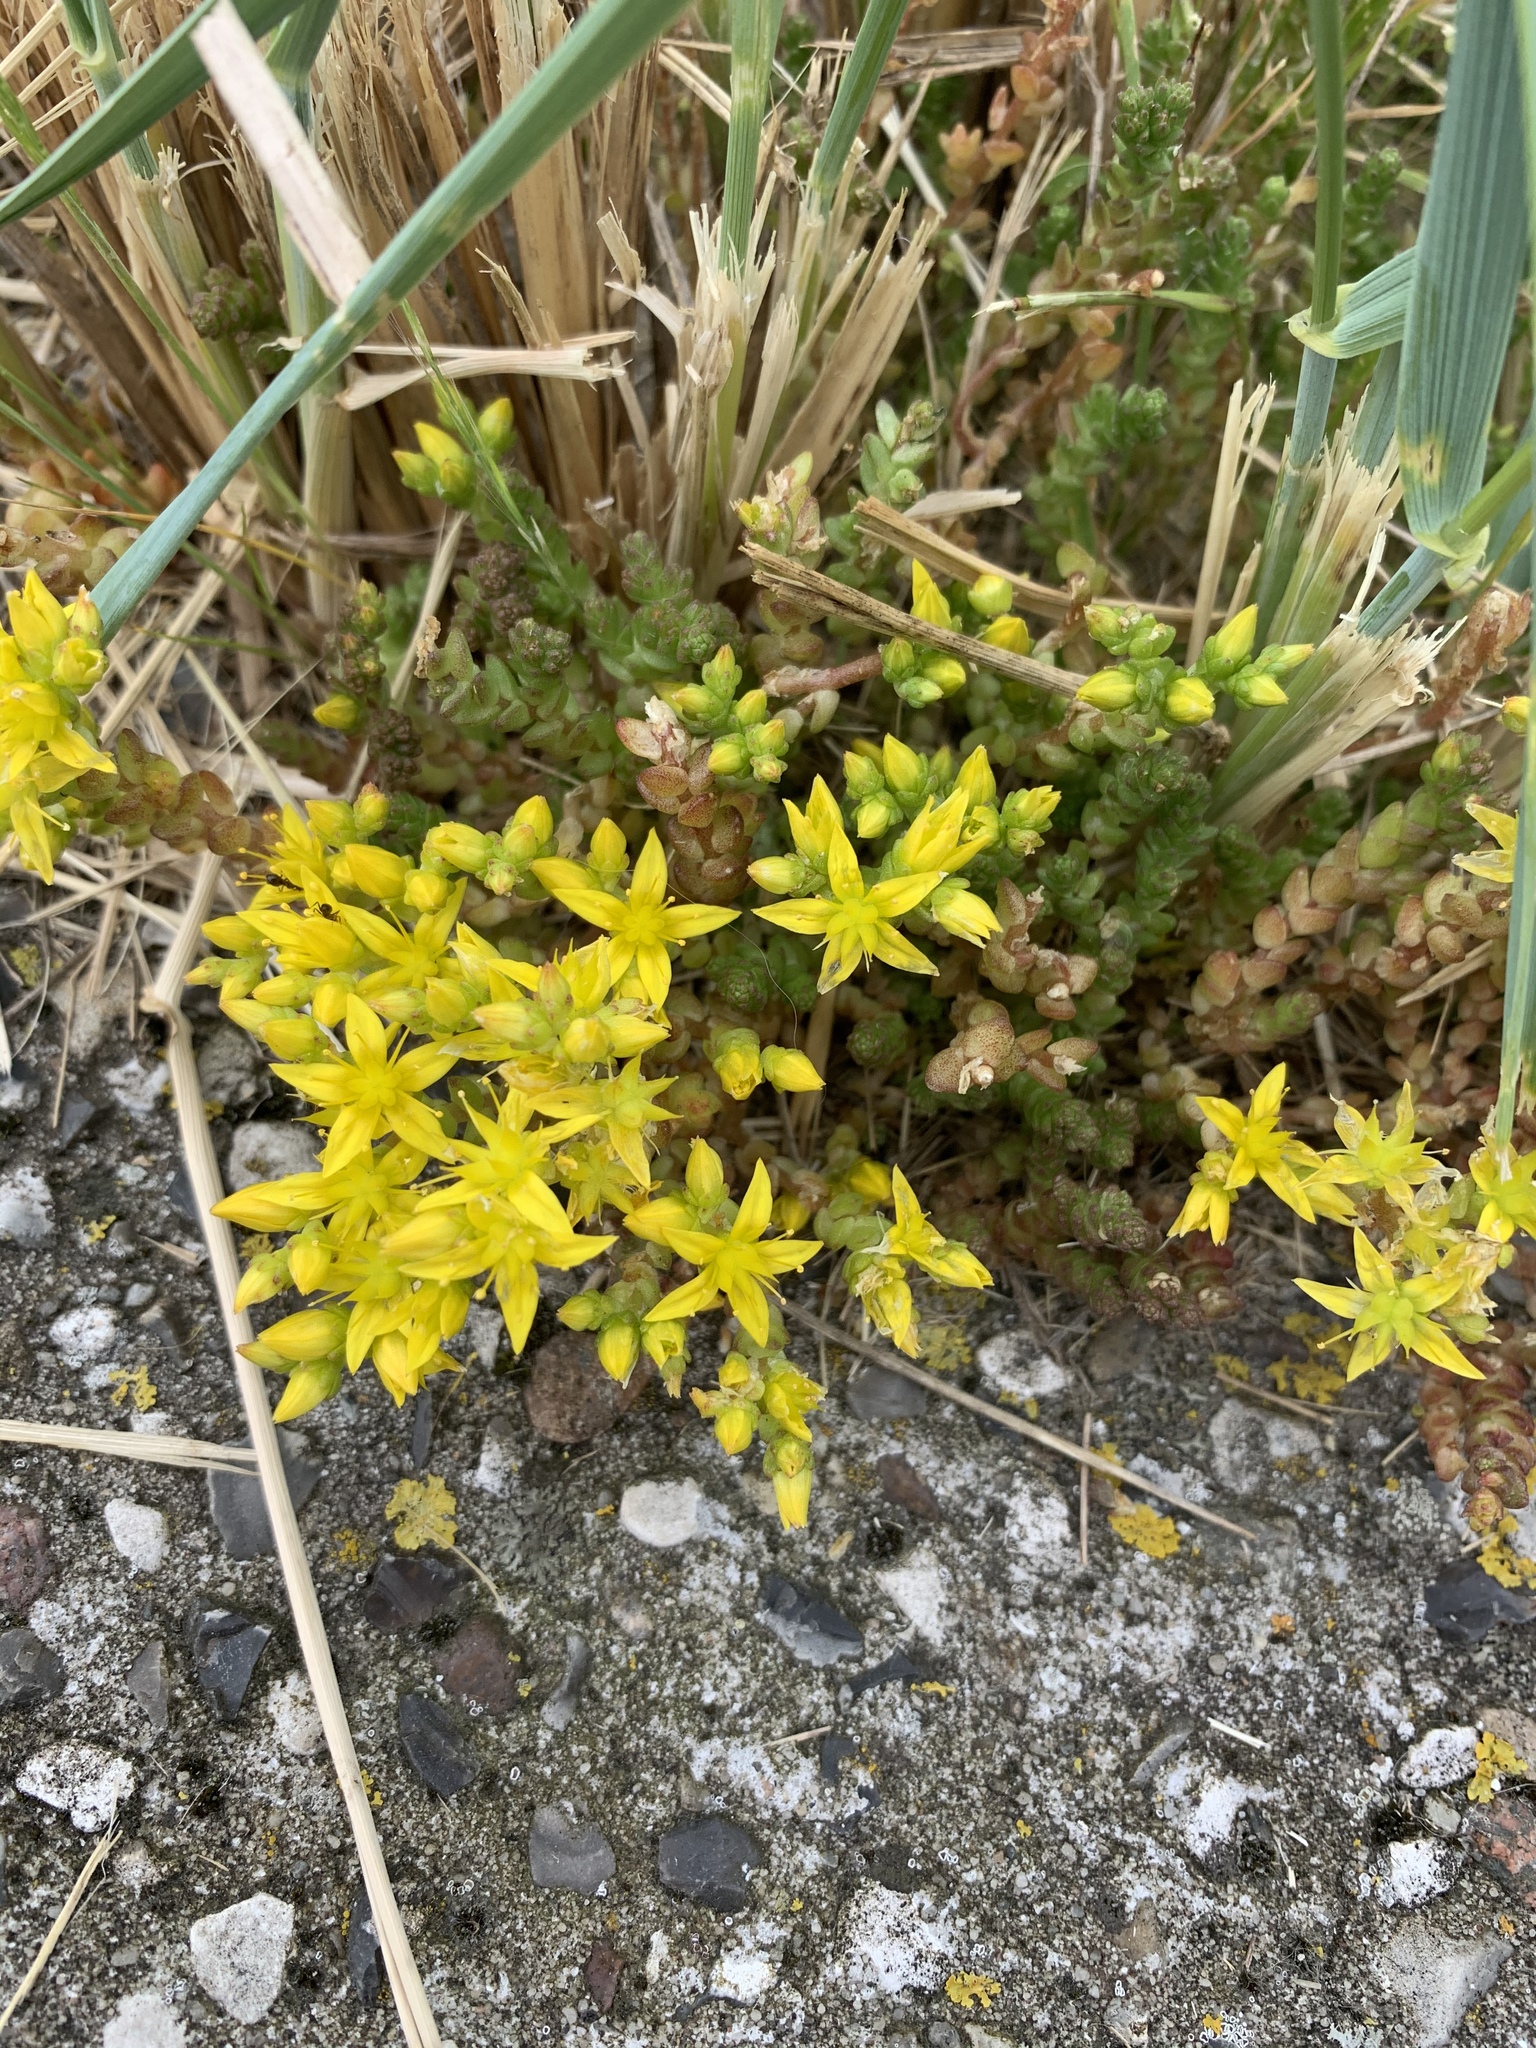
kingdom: Plantae
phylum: Tracheophyta
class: Magnoliopsida
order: Saxifragales
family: Crassulaceae
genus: Sedum
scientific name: Sedum acre
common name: Biting stonecrop
